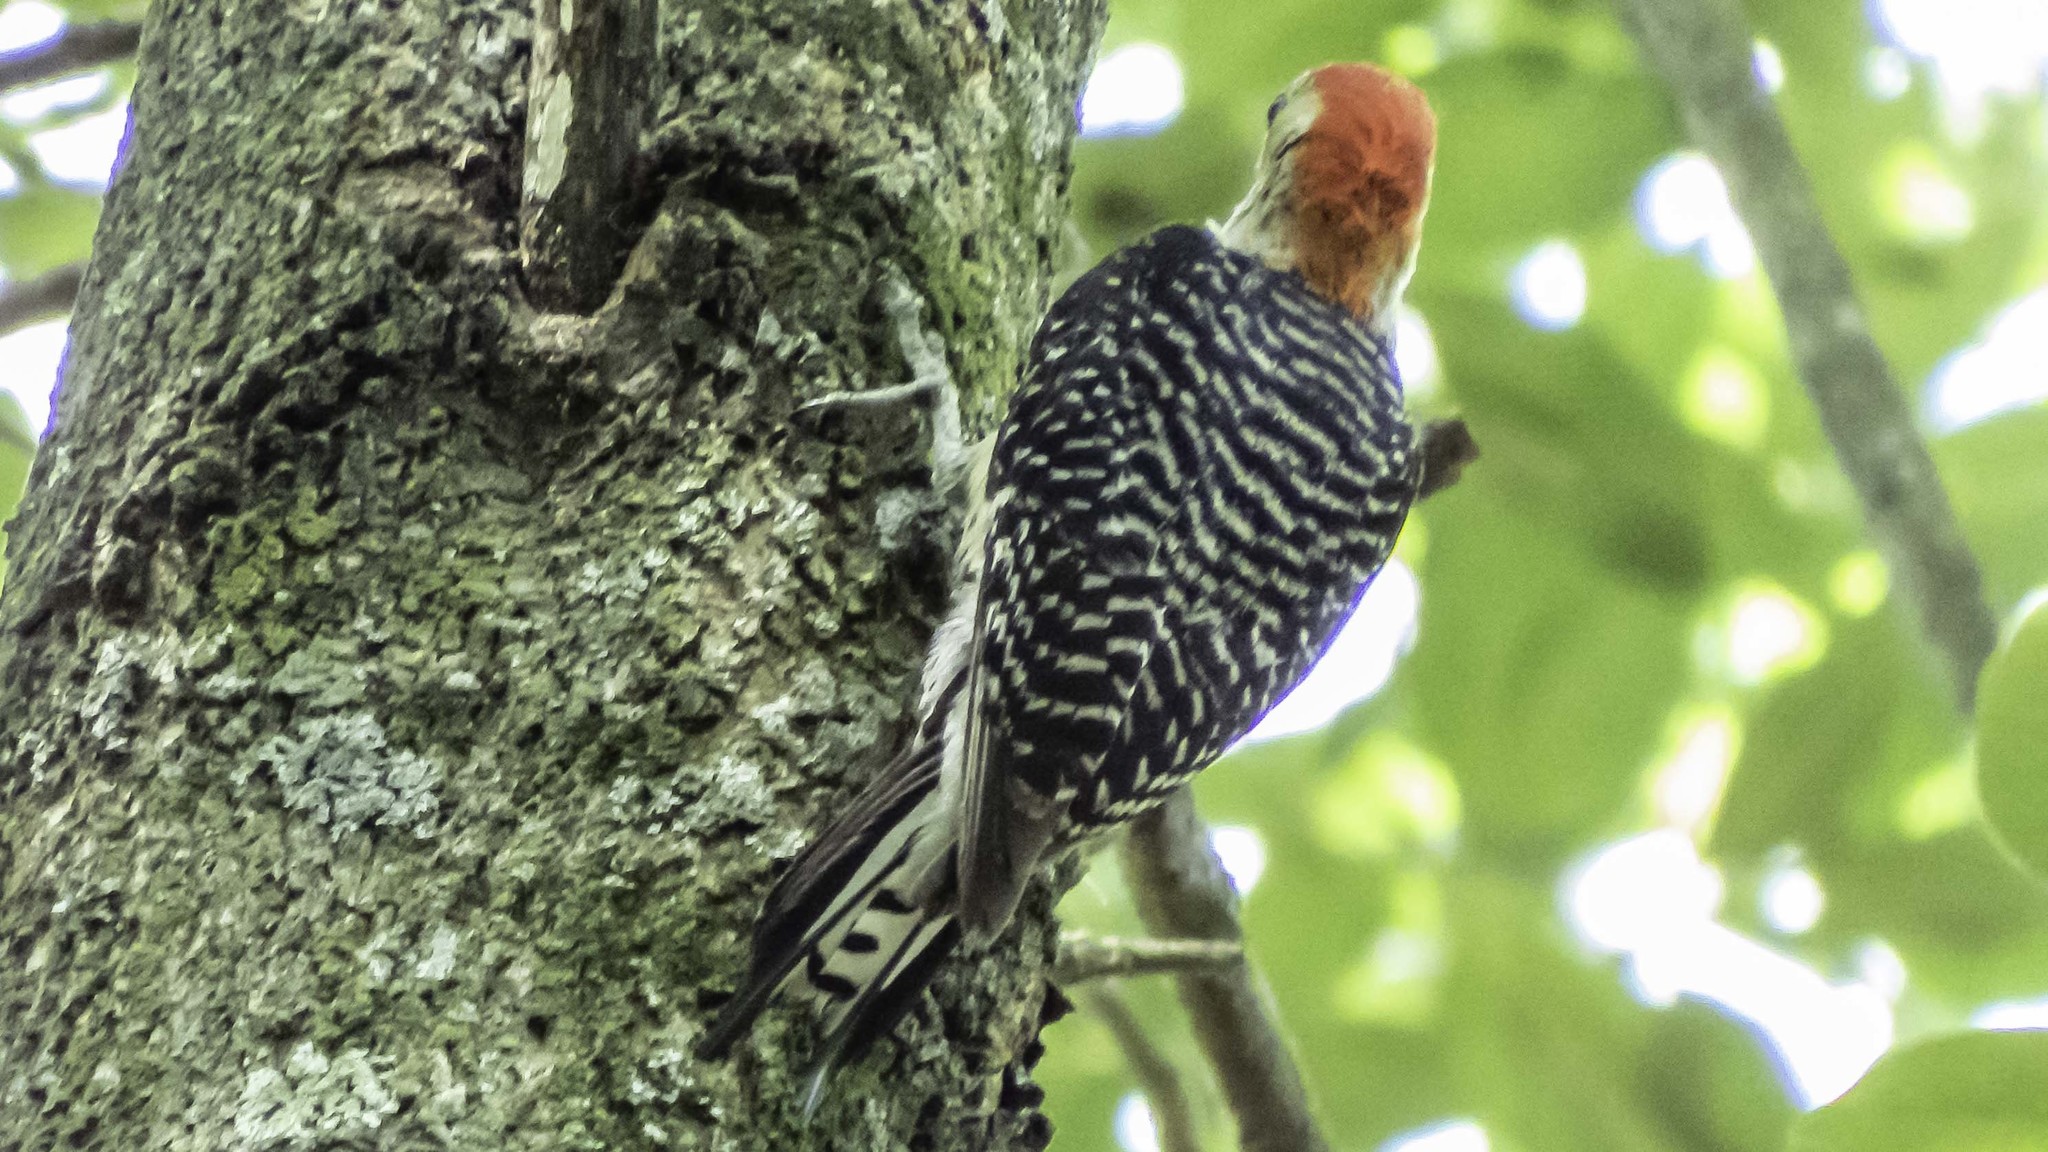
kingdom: Animalia
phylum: Chordata
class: Aves
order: Piciformes
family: Picidae
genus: Melanerpes
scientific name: Melanerpes carolinus
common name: Red-bellied woodpecker
